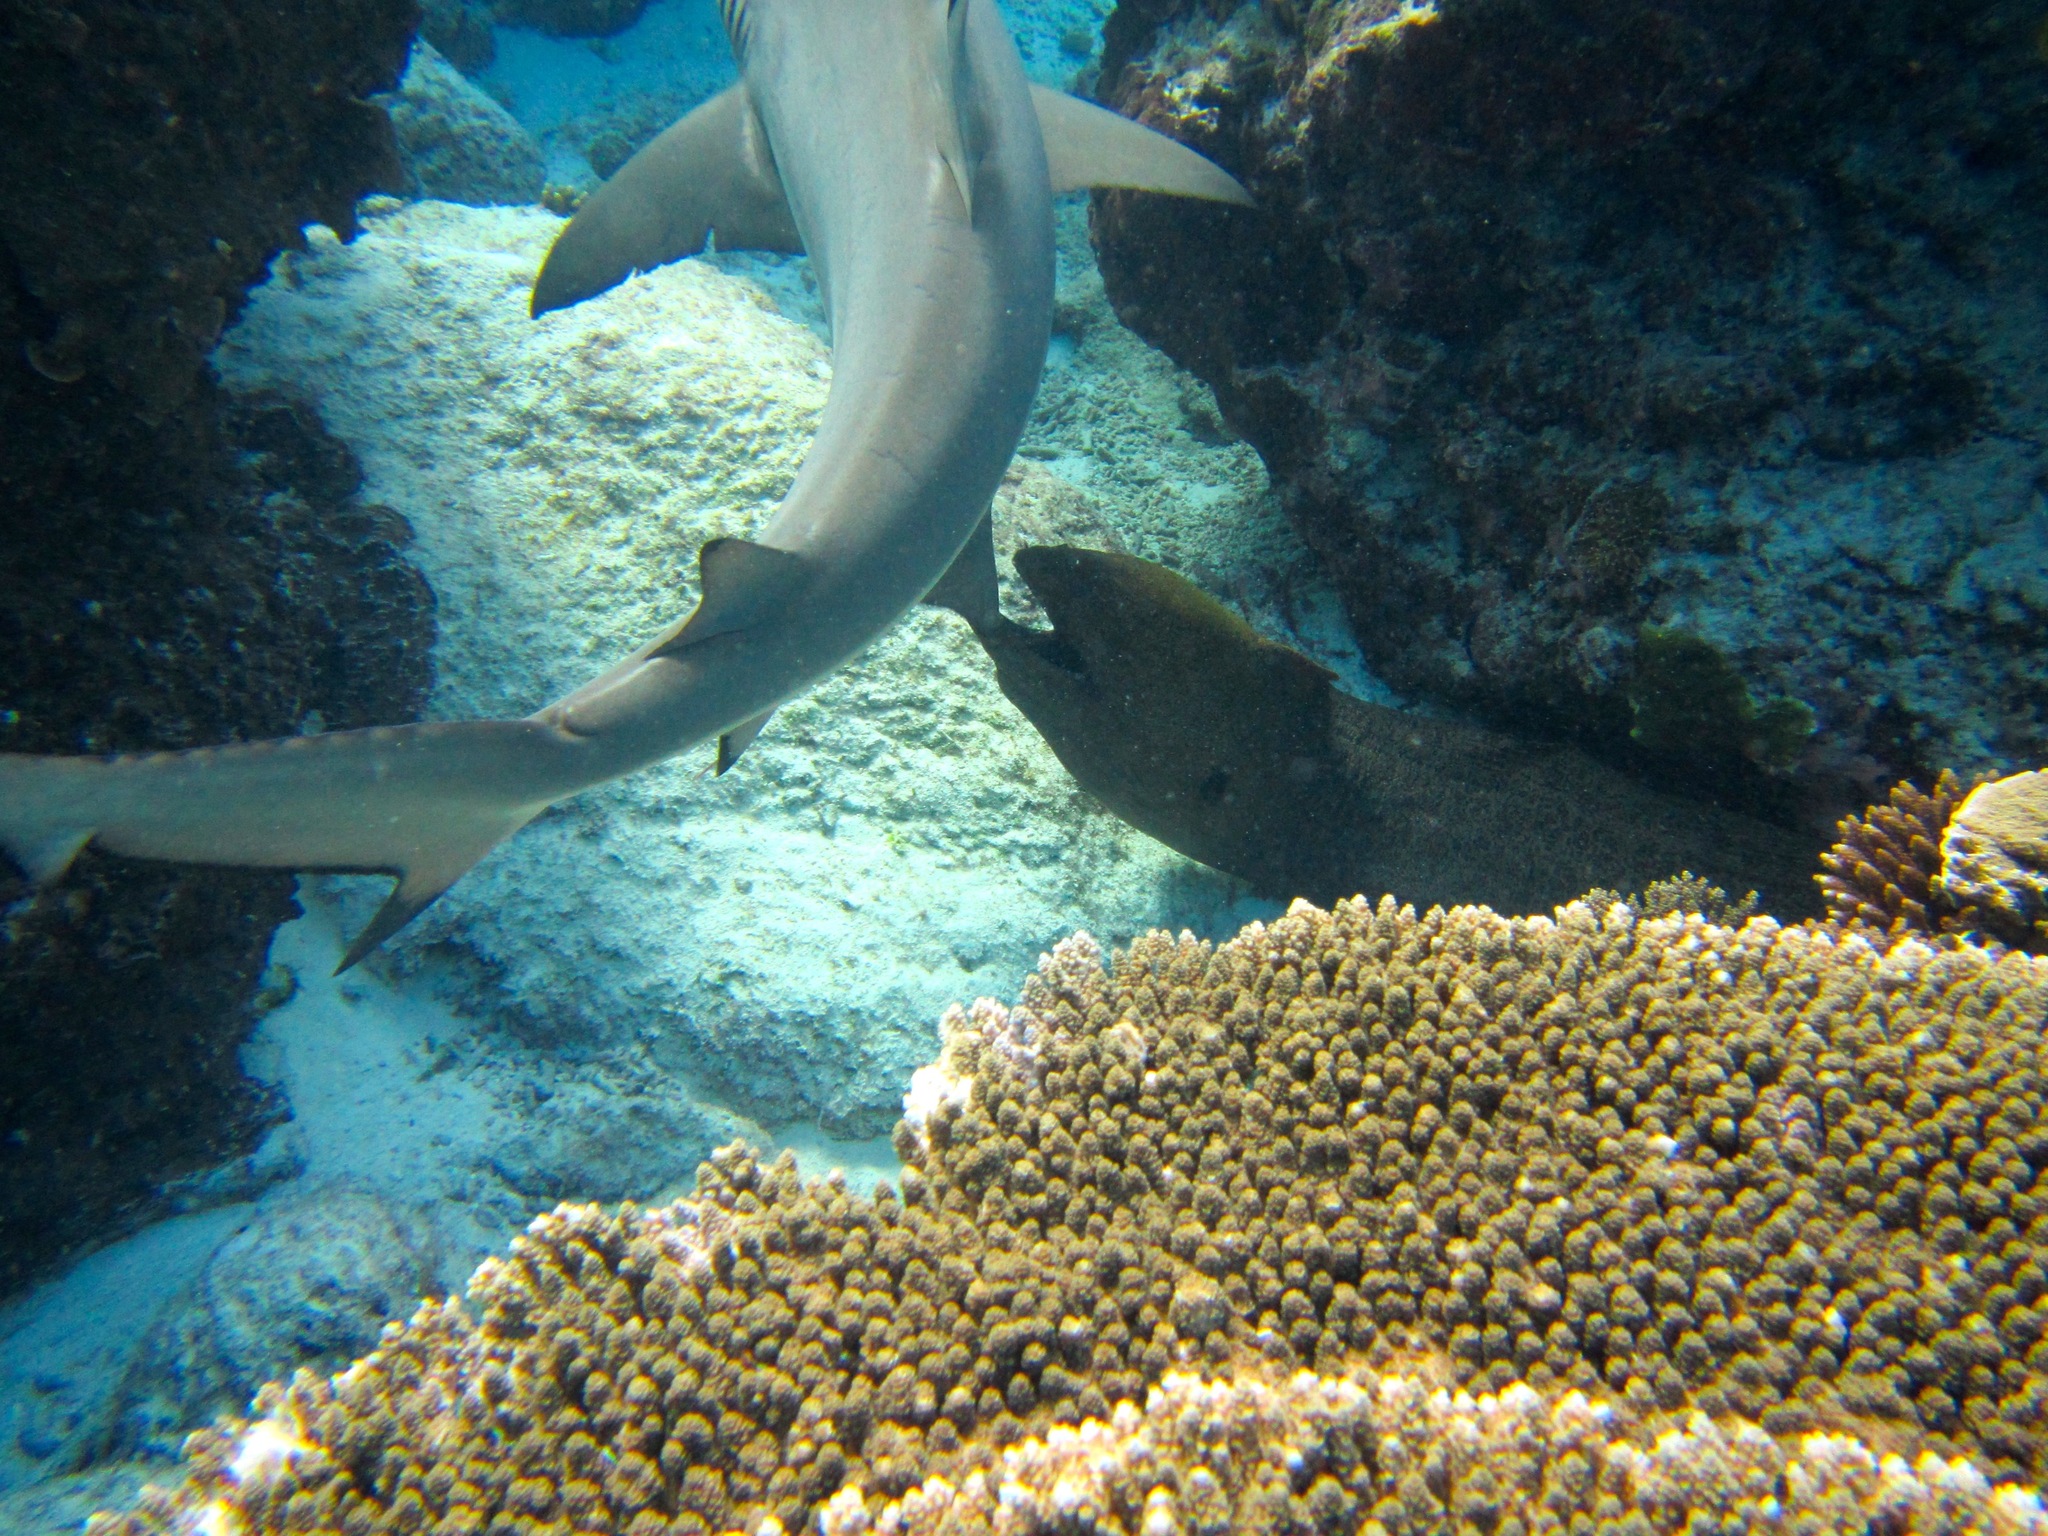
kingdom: Animalia
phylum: Chordata
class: Elasmobranchii
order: Carcharhiniformes
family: Carcharhinidae
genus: Carcharhinus
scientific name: Carcharhinus melanopterus
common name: Blacktip reef shark
